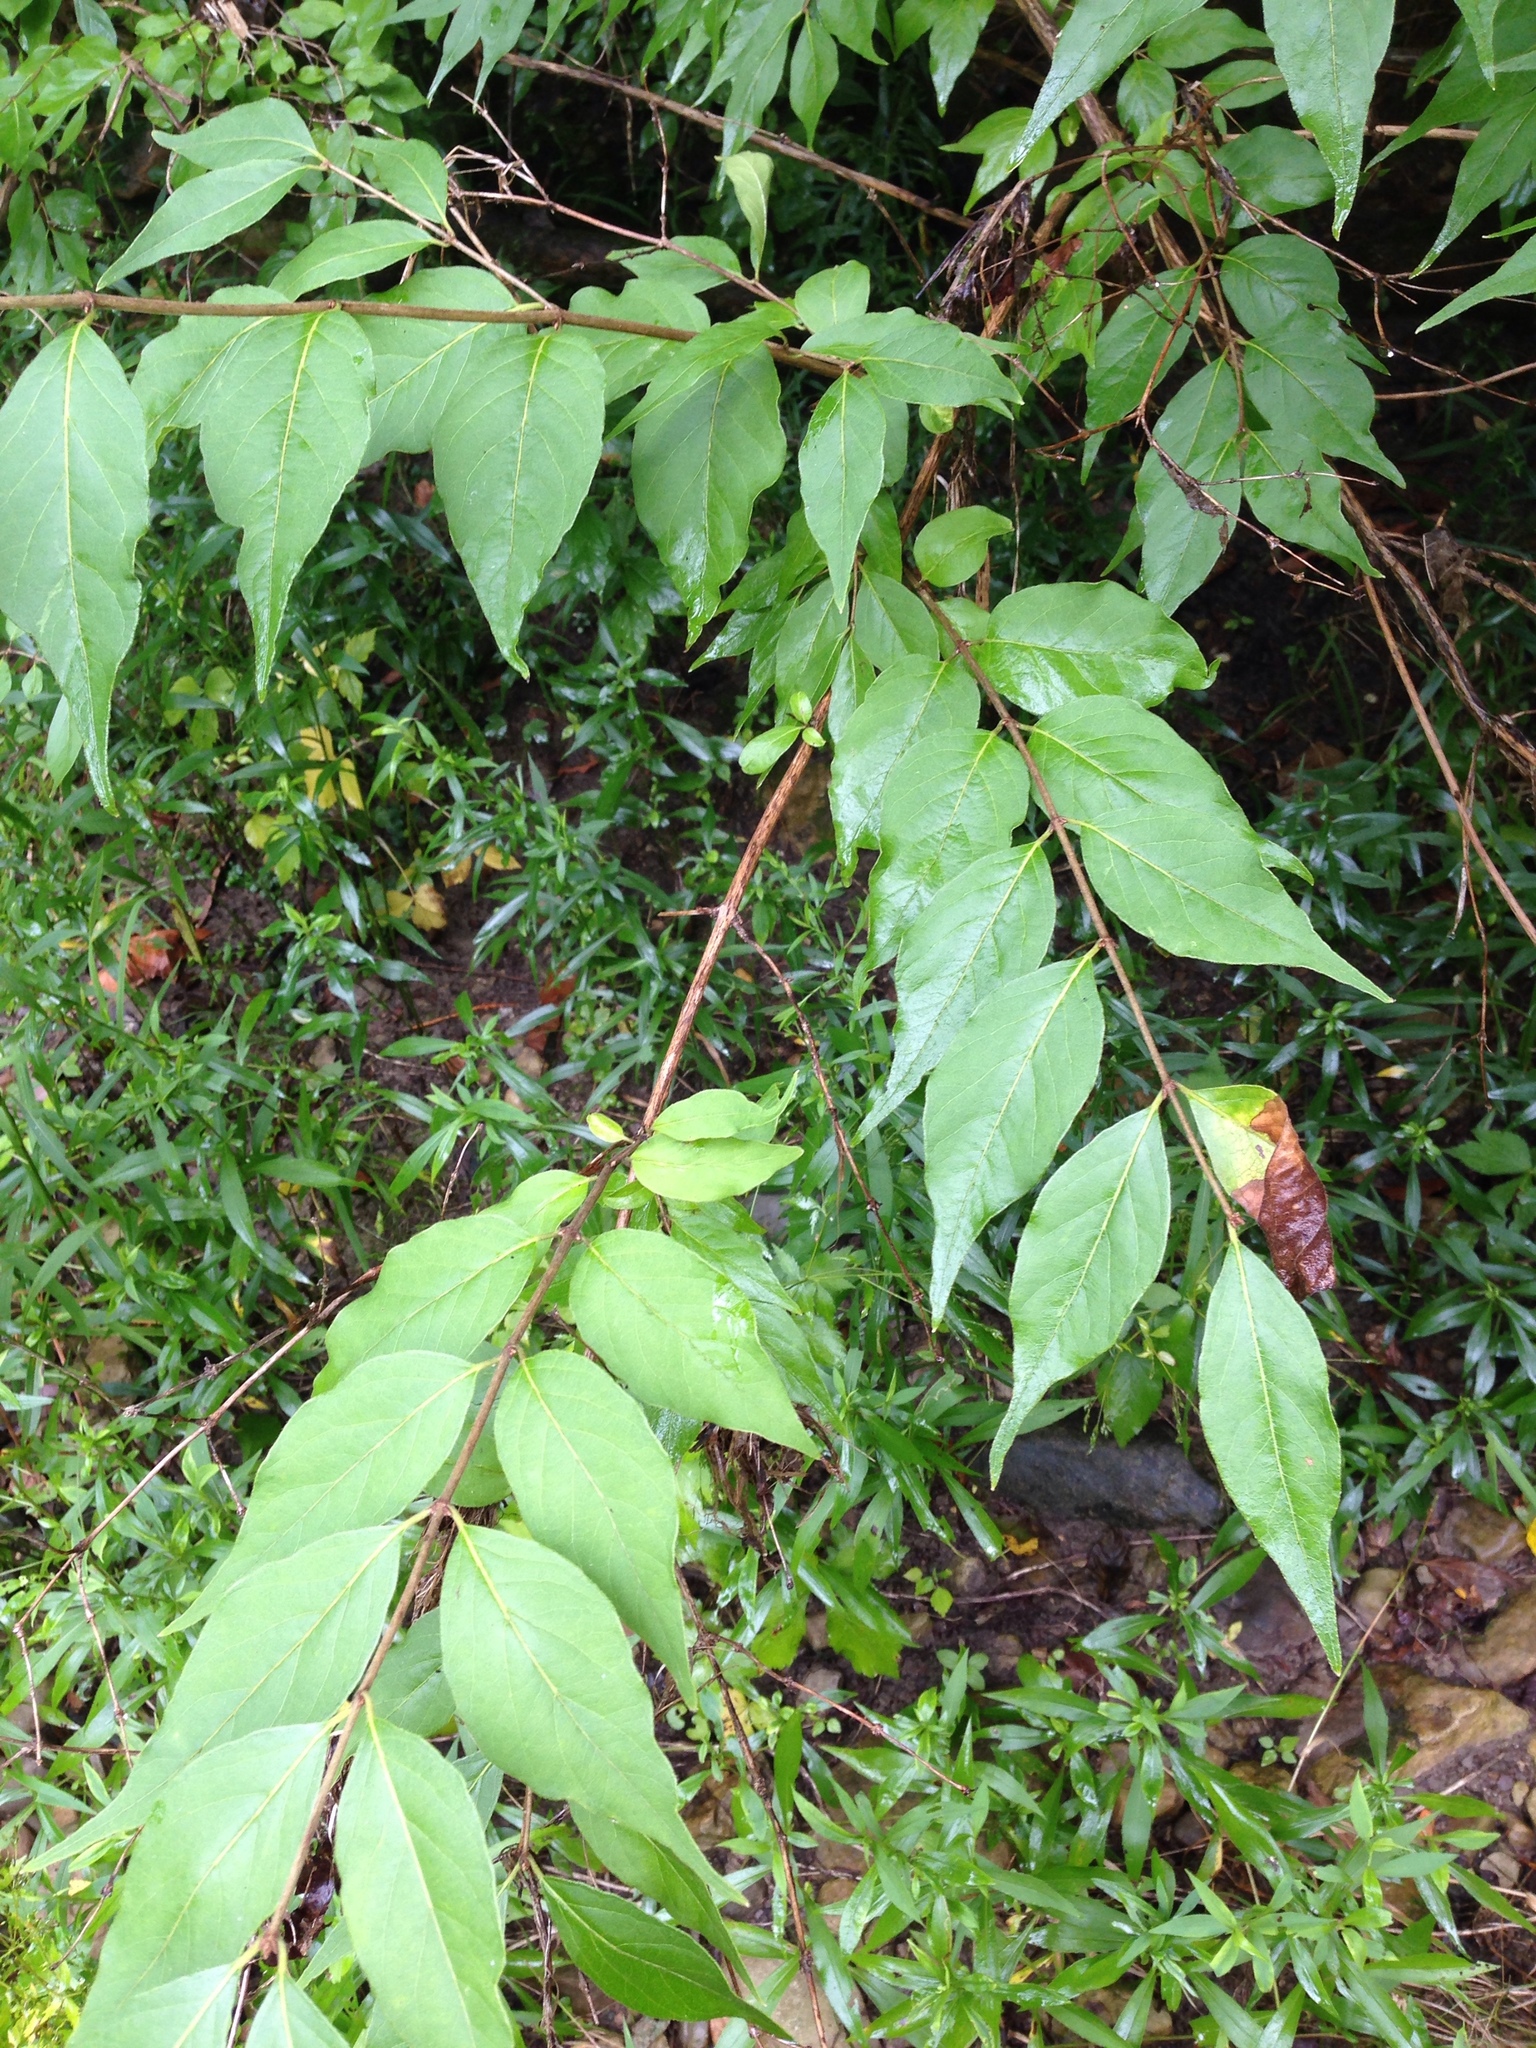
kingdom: Plantae
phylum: Tracheophyta
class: Magnoliopsida
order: Dipsacales
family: Caprifoliaceae
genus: Lonicera
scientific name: Lonicera maackii
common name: Amur honeysuckle
